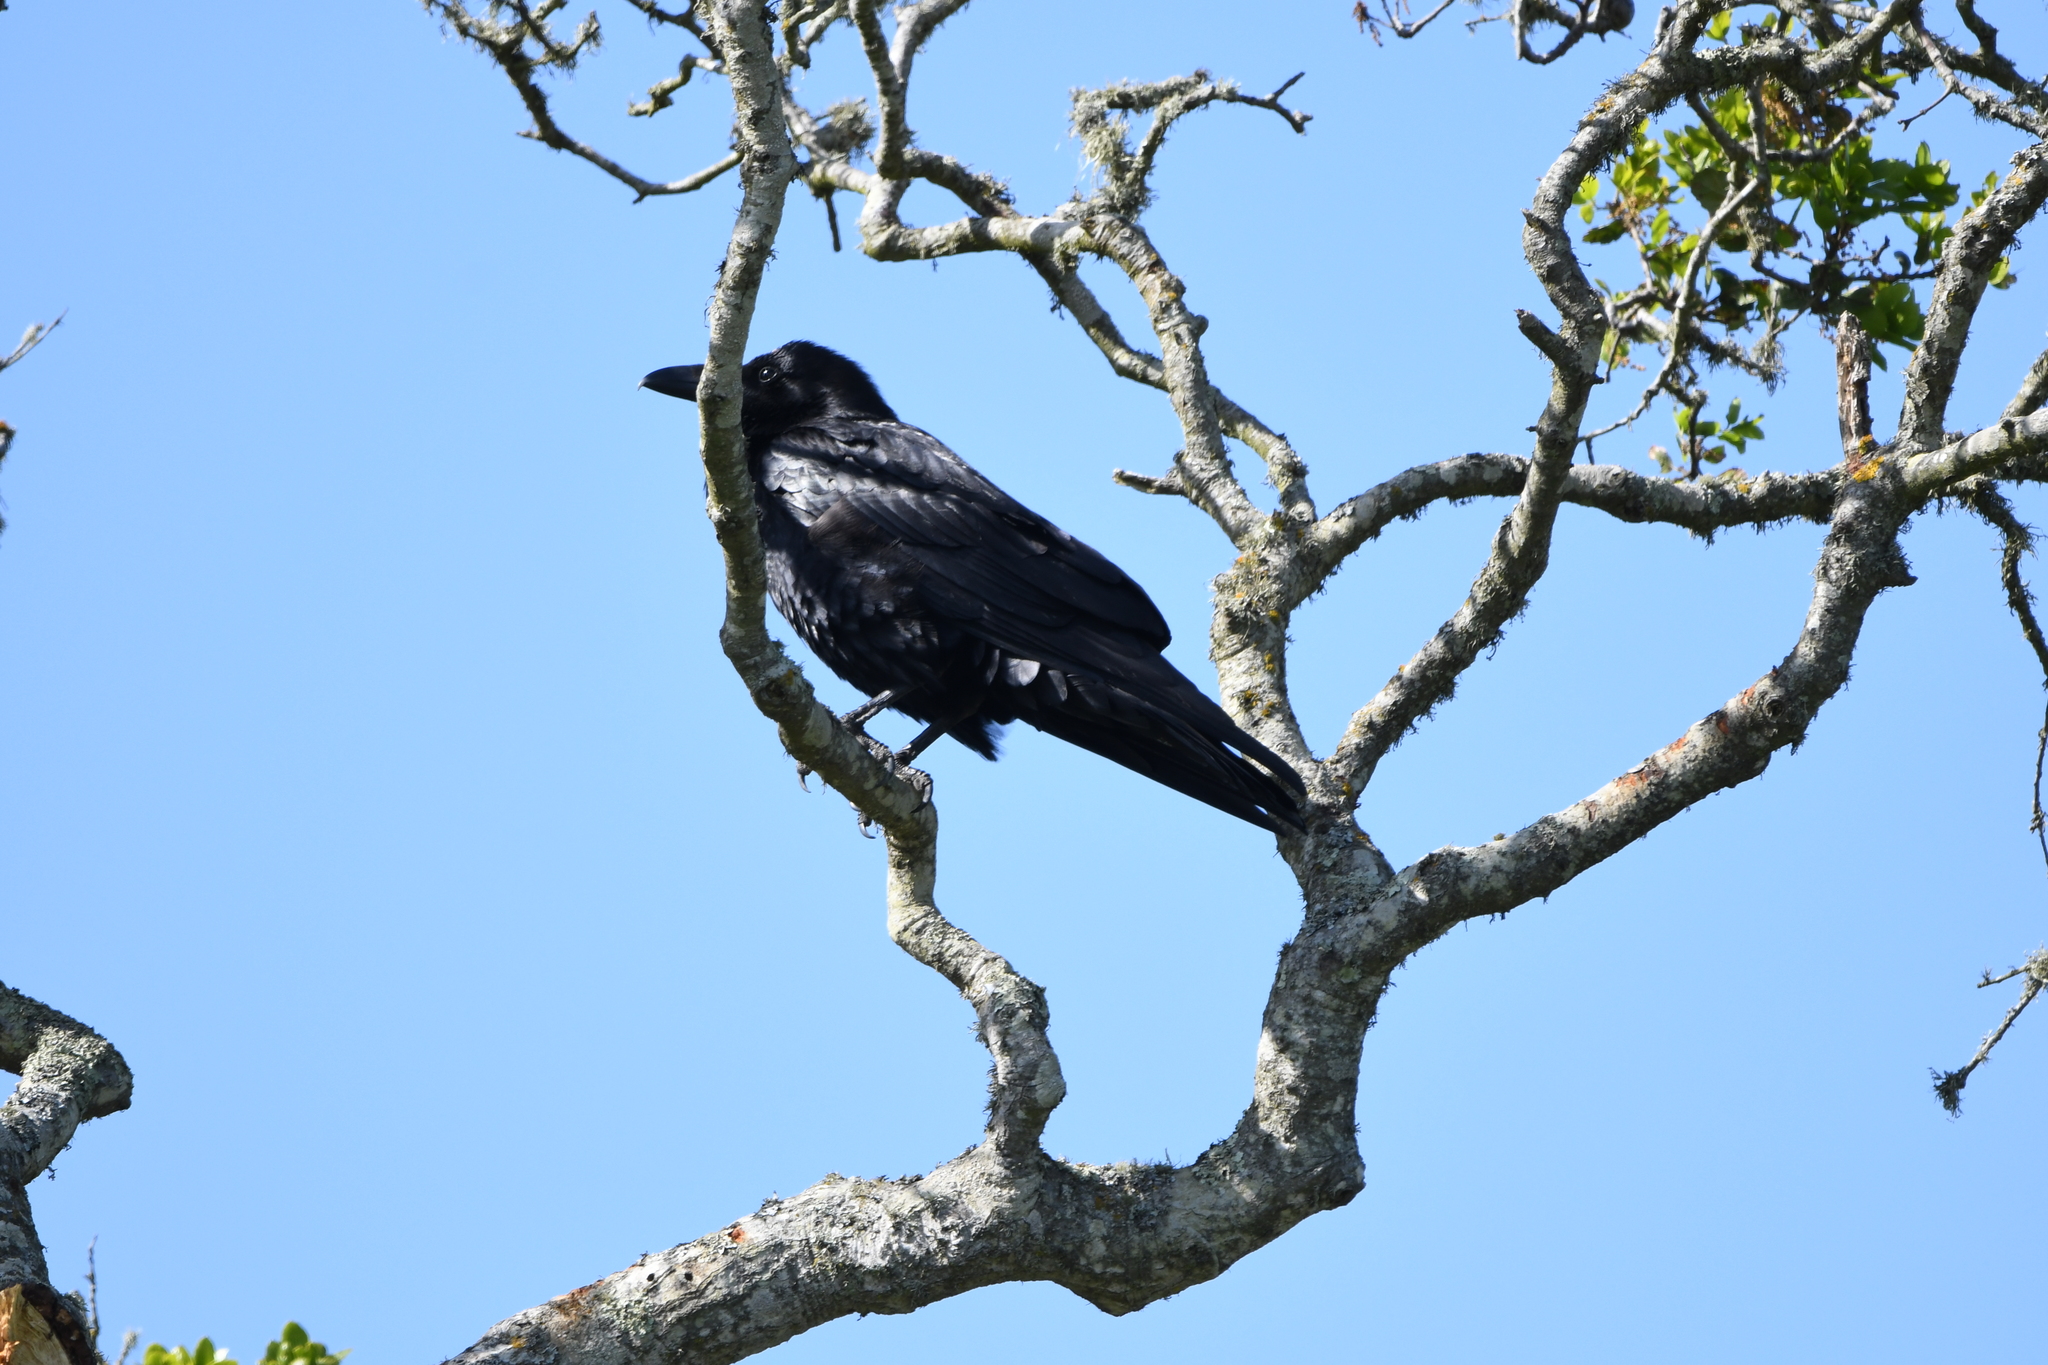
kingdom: Animalia
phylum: Chordata
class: Aves
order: Passeriformes
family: Corvidae
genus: Corvus
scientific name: Corvus corax
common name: Common raven
